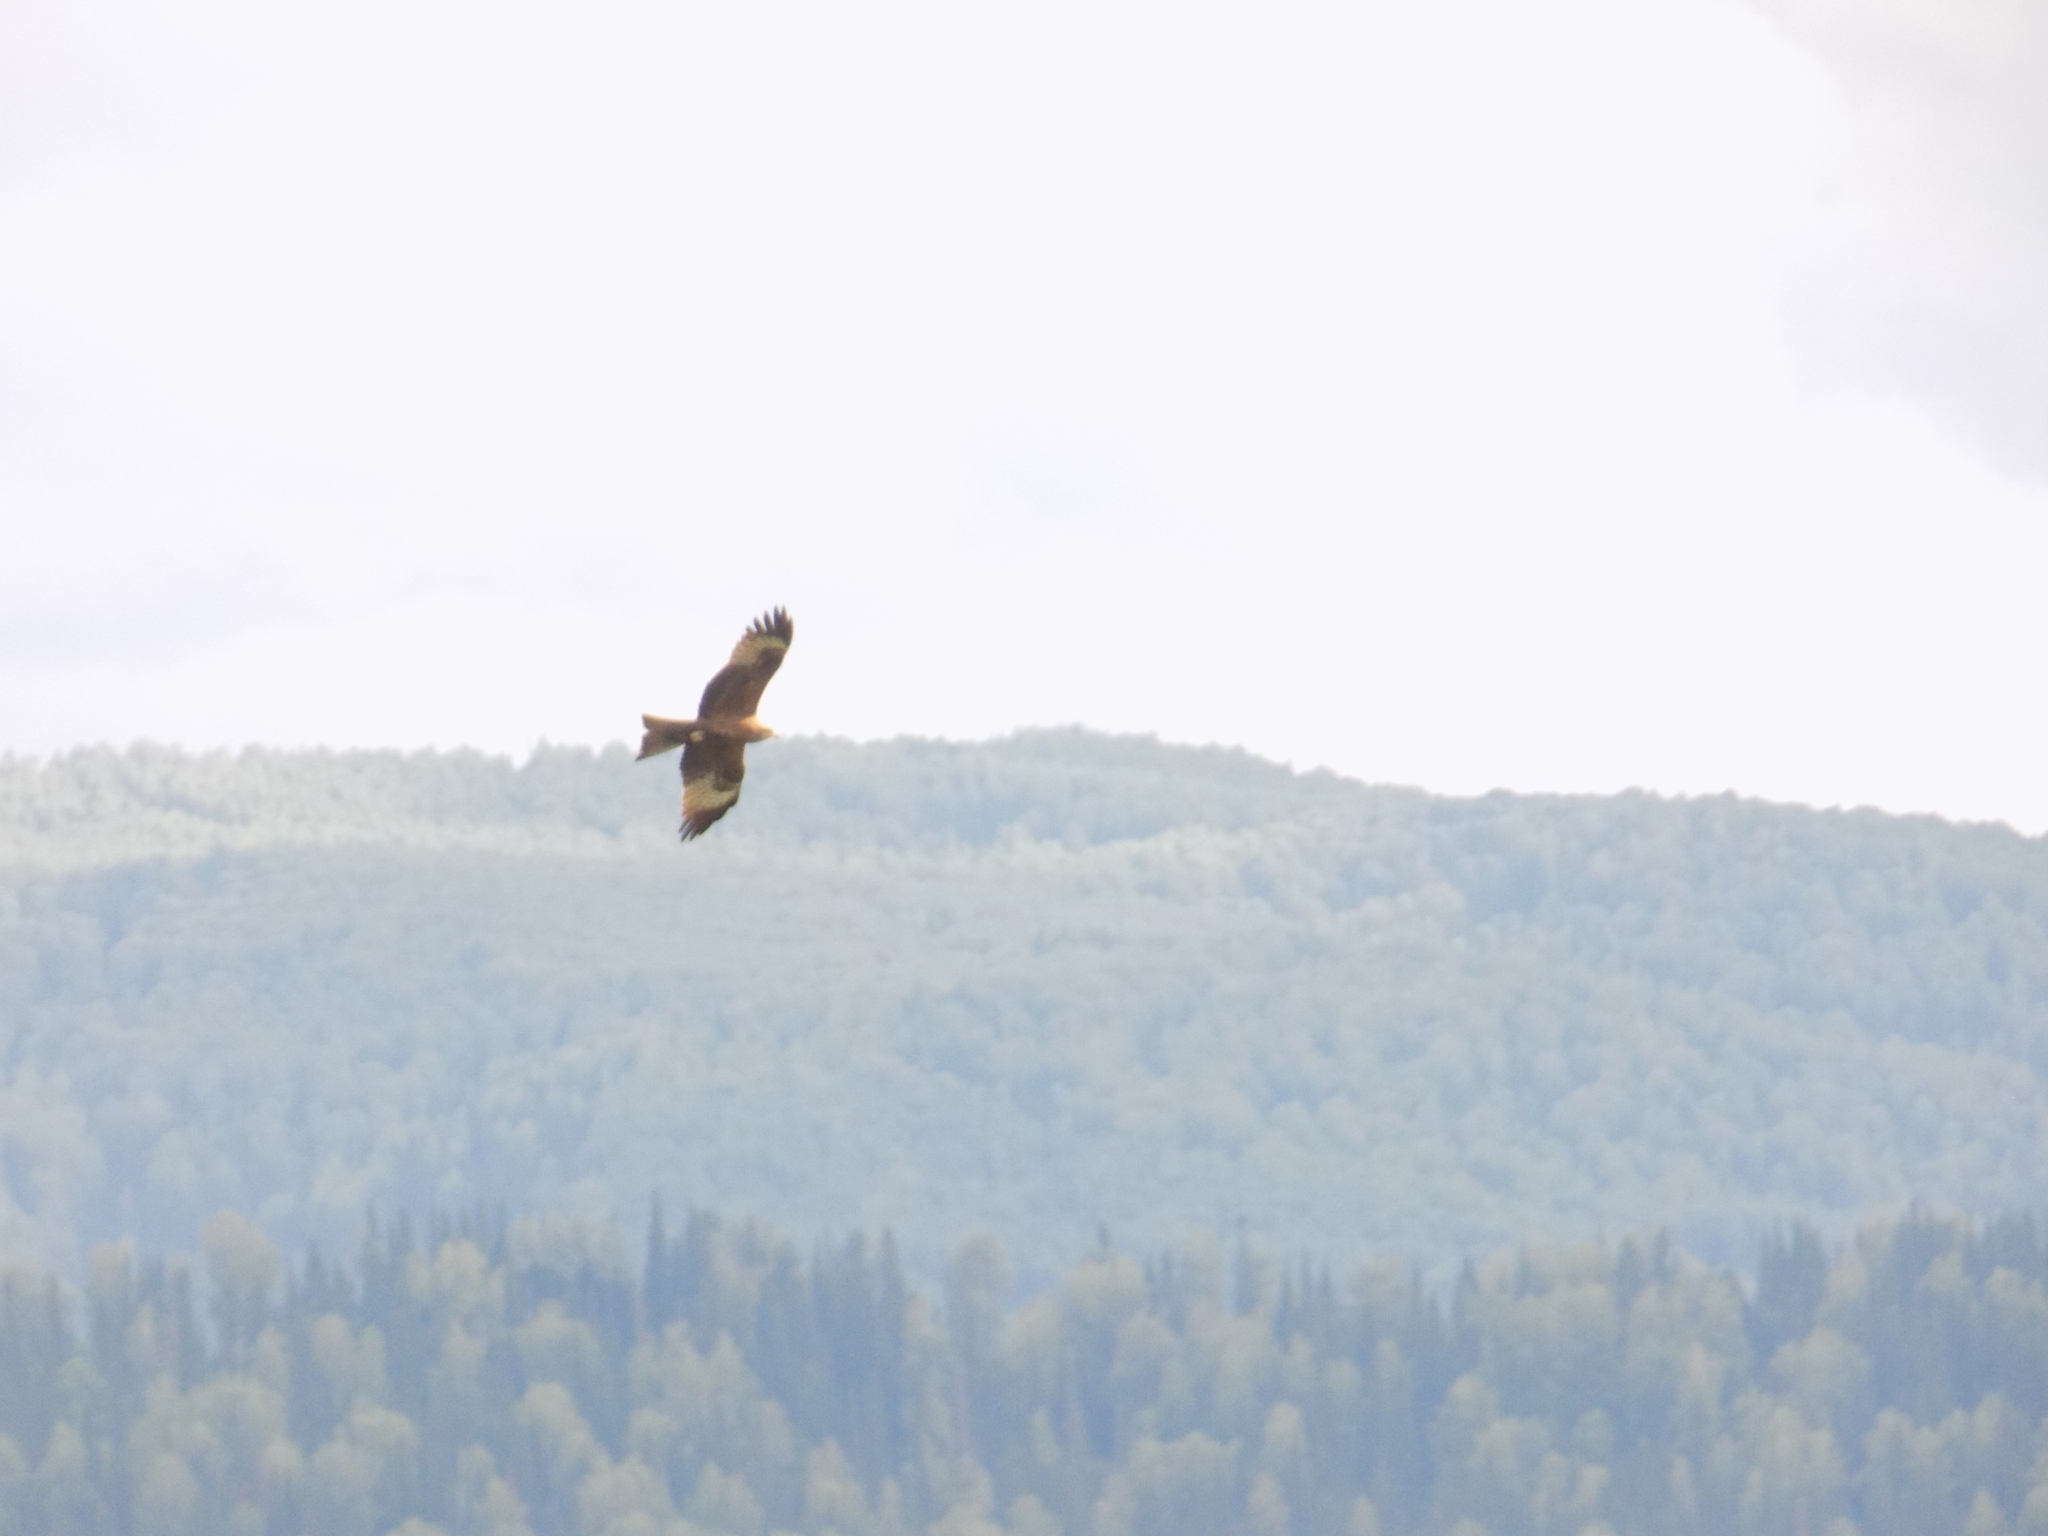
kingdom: Animalia
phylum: Chordata
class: Aves
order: Accipitriformes
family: Accipitridae
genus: Milvus
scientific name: Milvus migrans
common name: Black kite
